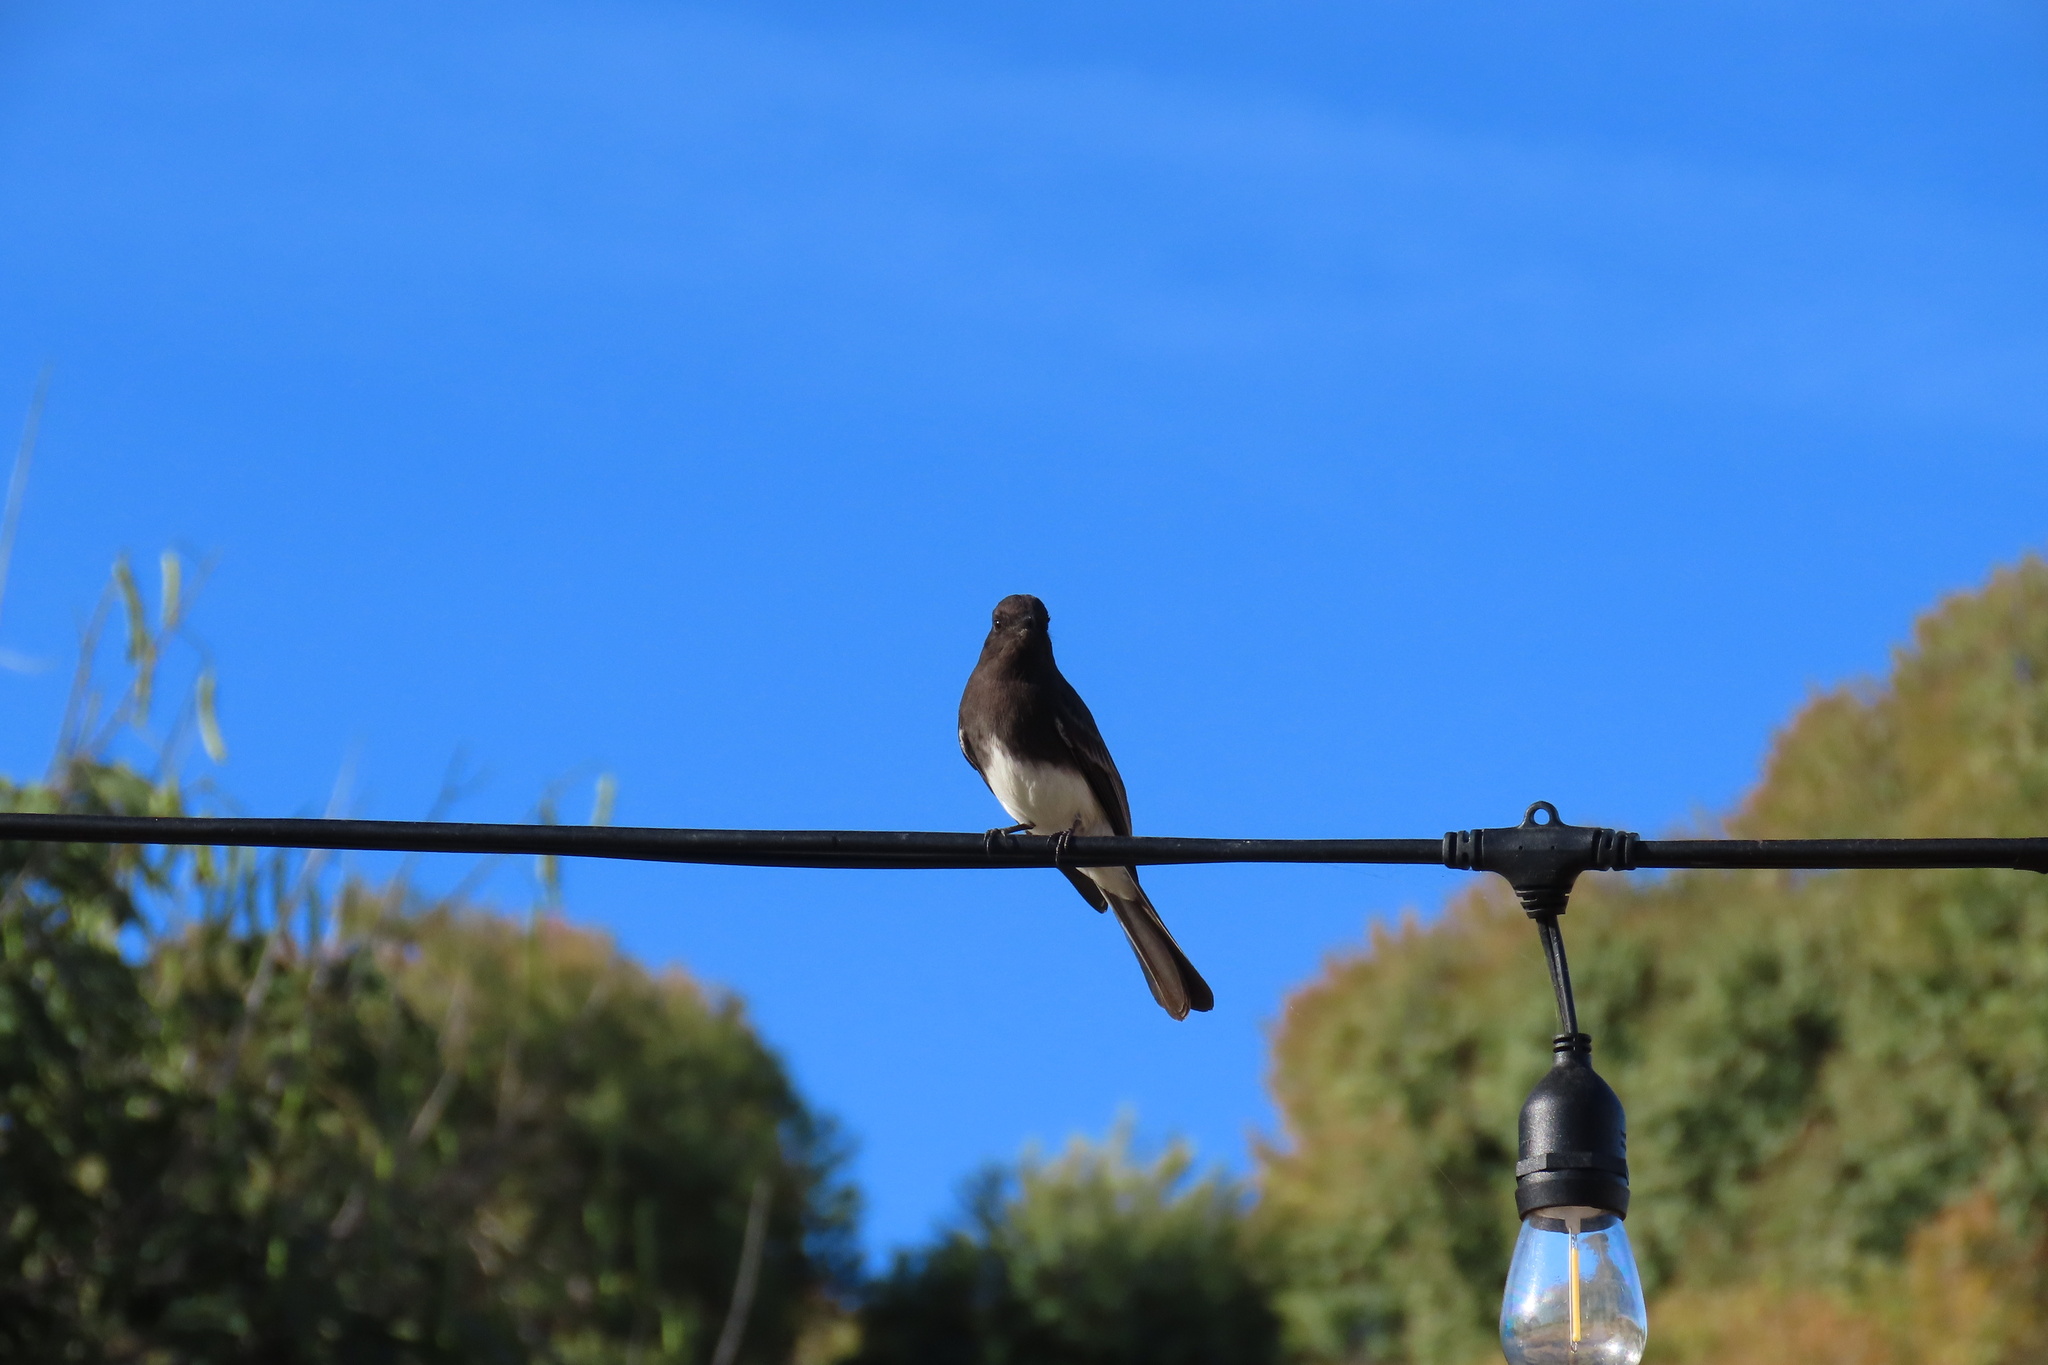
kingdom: Animalia
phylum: Chordata
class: Aves
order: Passeriformes
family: Tyrannidae
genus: Sayornis
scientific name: Sayornis nigricans
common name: Black phoebe
